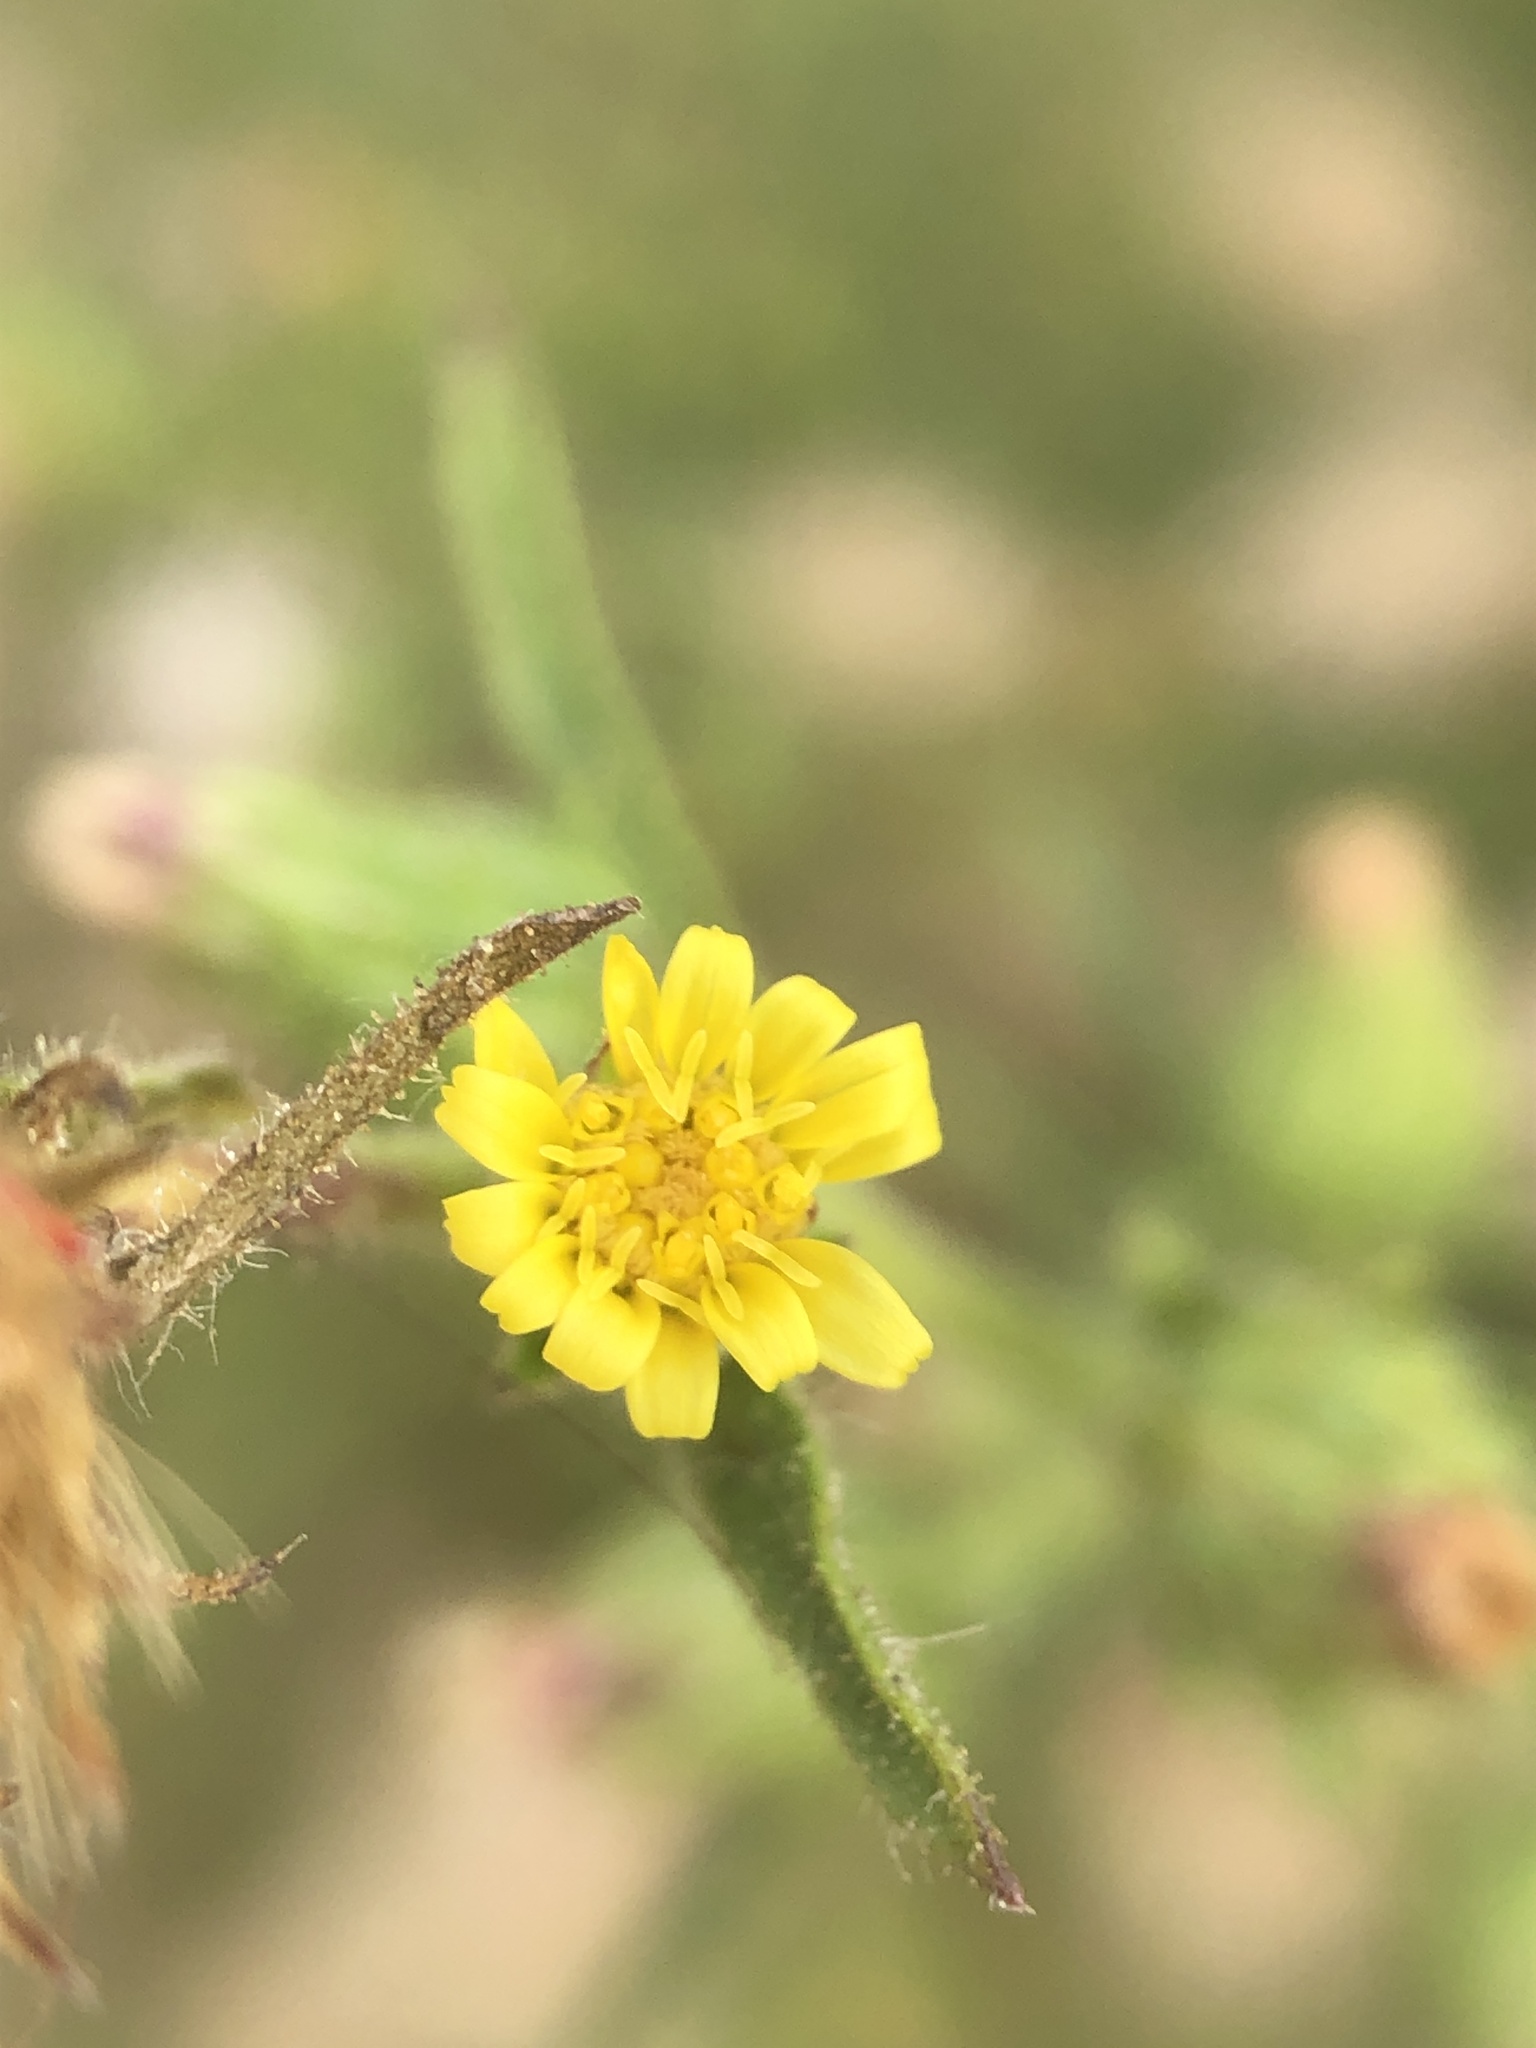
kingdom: Plantae
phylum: Tracheophyta
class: Magnoliopsida
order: Asterales
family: Asteraceae
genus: Dittrichia
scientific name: Dittrichia graveolens
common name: Stinking fleabane
